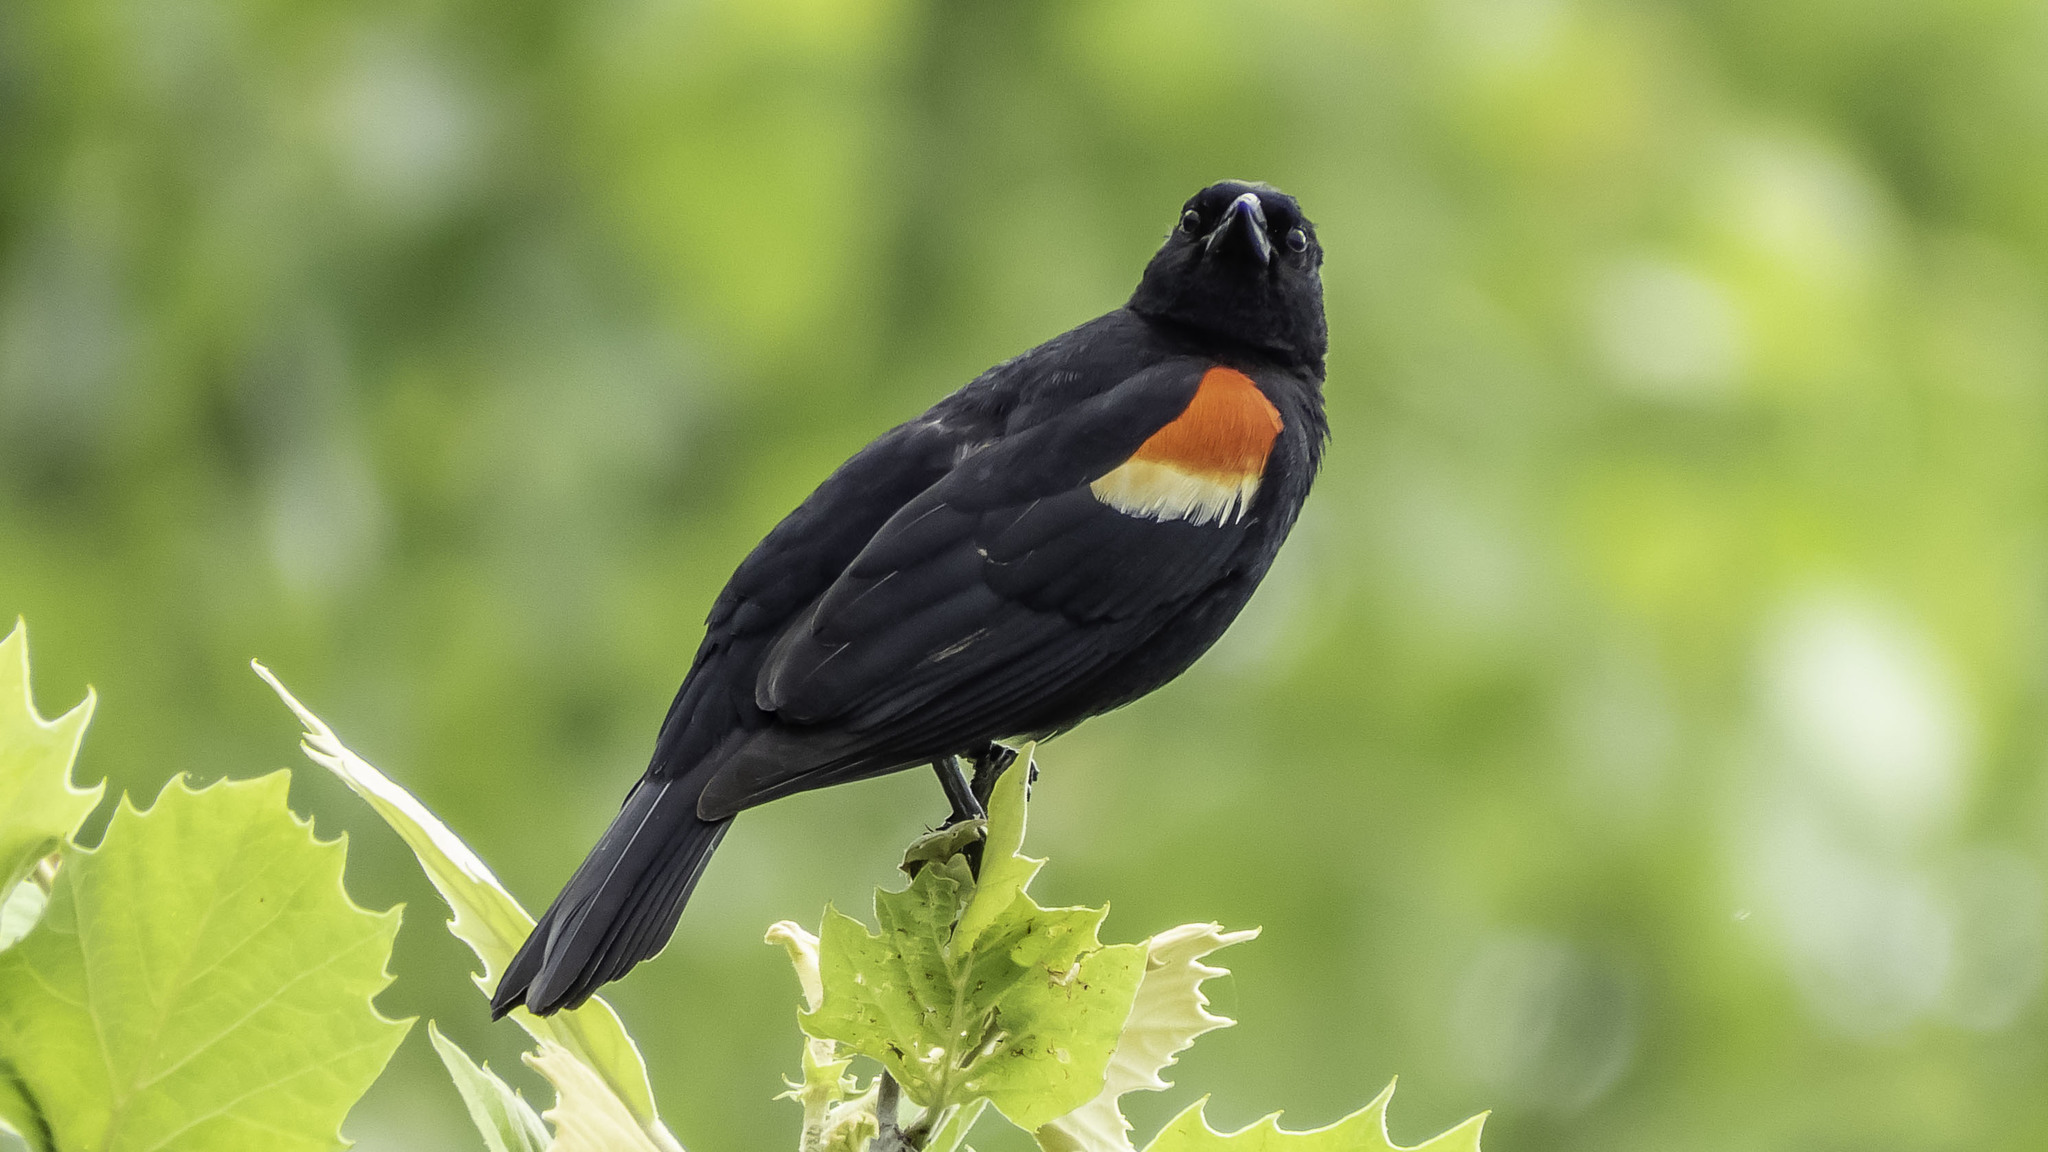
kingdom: Animalia
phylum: Chordata
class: Aves
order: Passeriformes
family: Icteridae
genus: Agelaius
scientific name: Agelaius phoeniceus
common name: Red-winged blackbird
